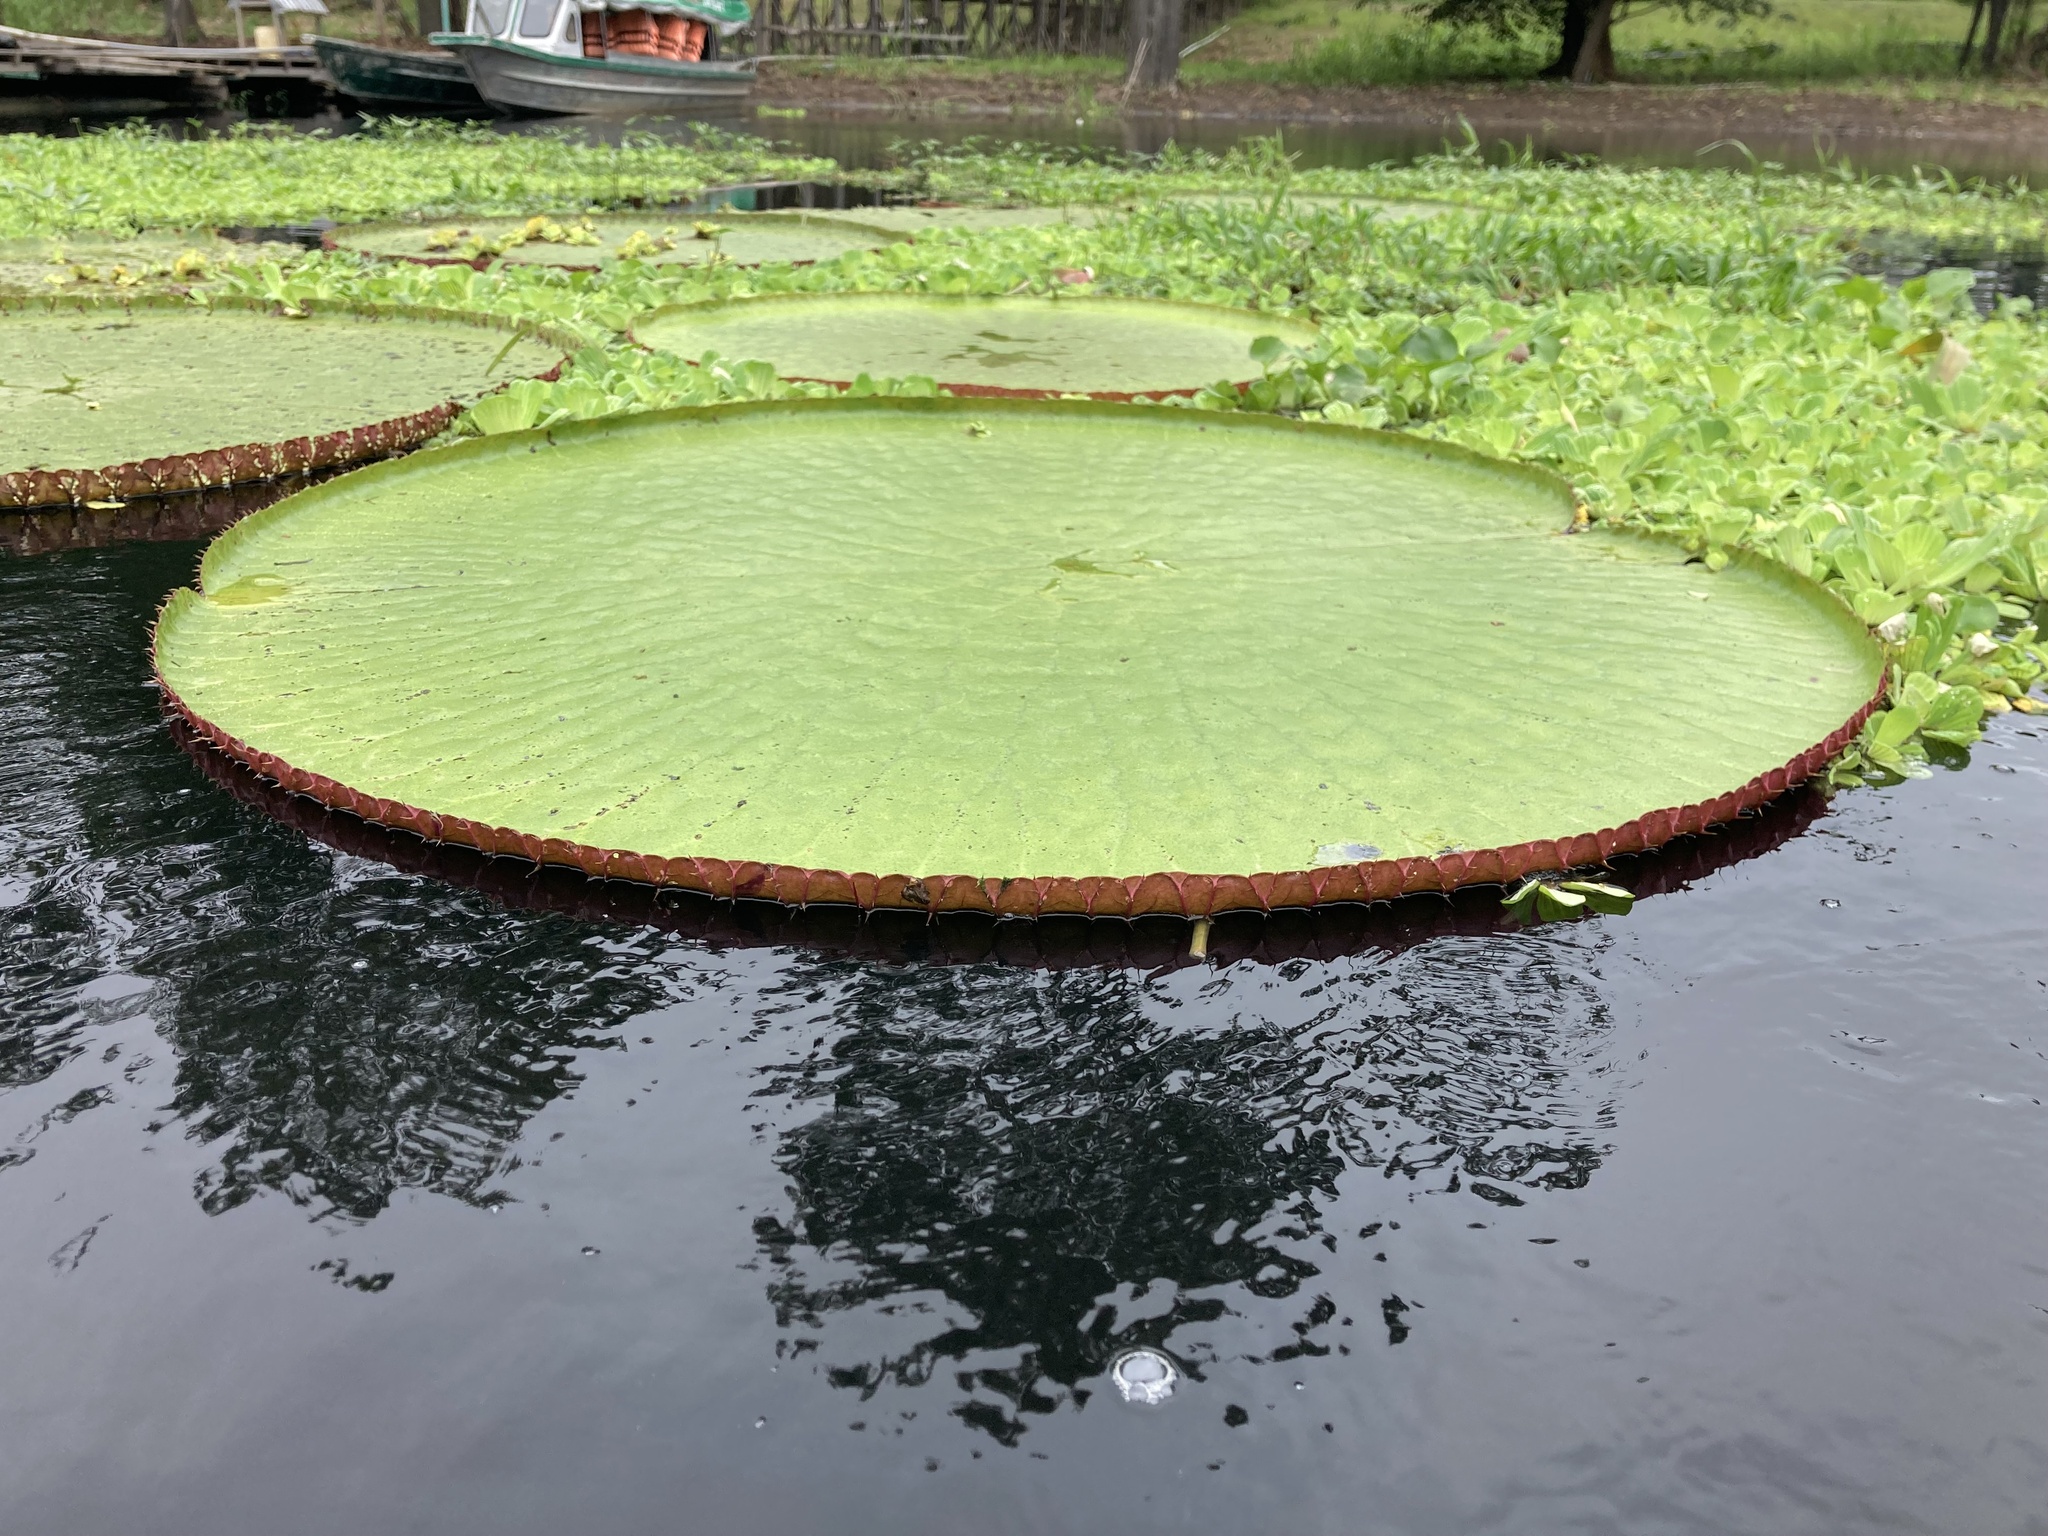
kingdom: Plantae
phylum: Tracheophyta
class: Magnoliopsida
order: Nymphaeales
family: Nymphaeaceae
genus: Victoria
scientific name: Victoria amazonica
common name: Amazon water-lily
